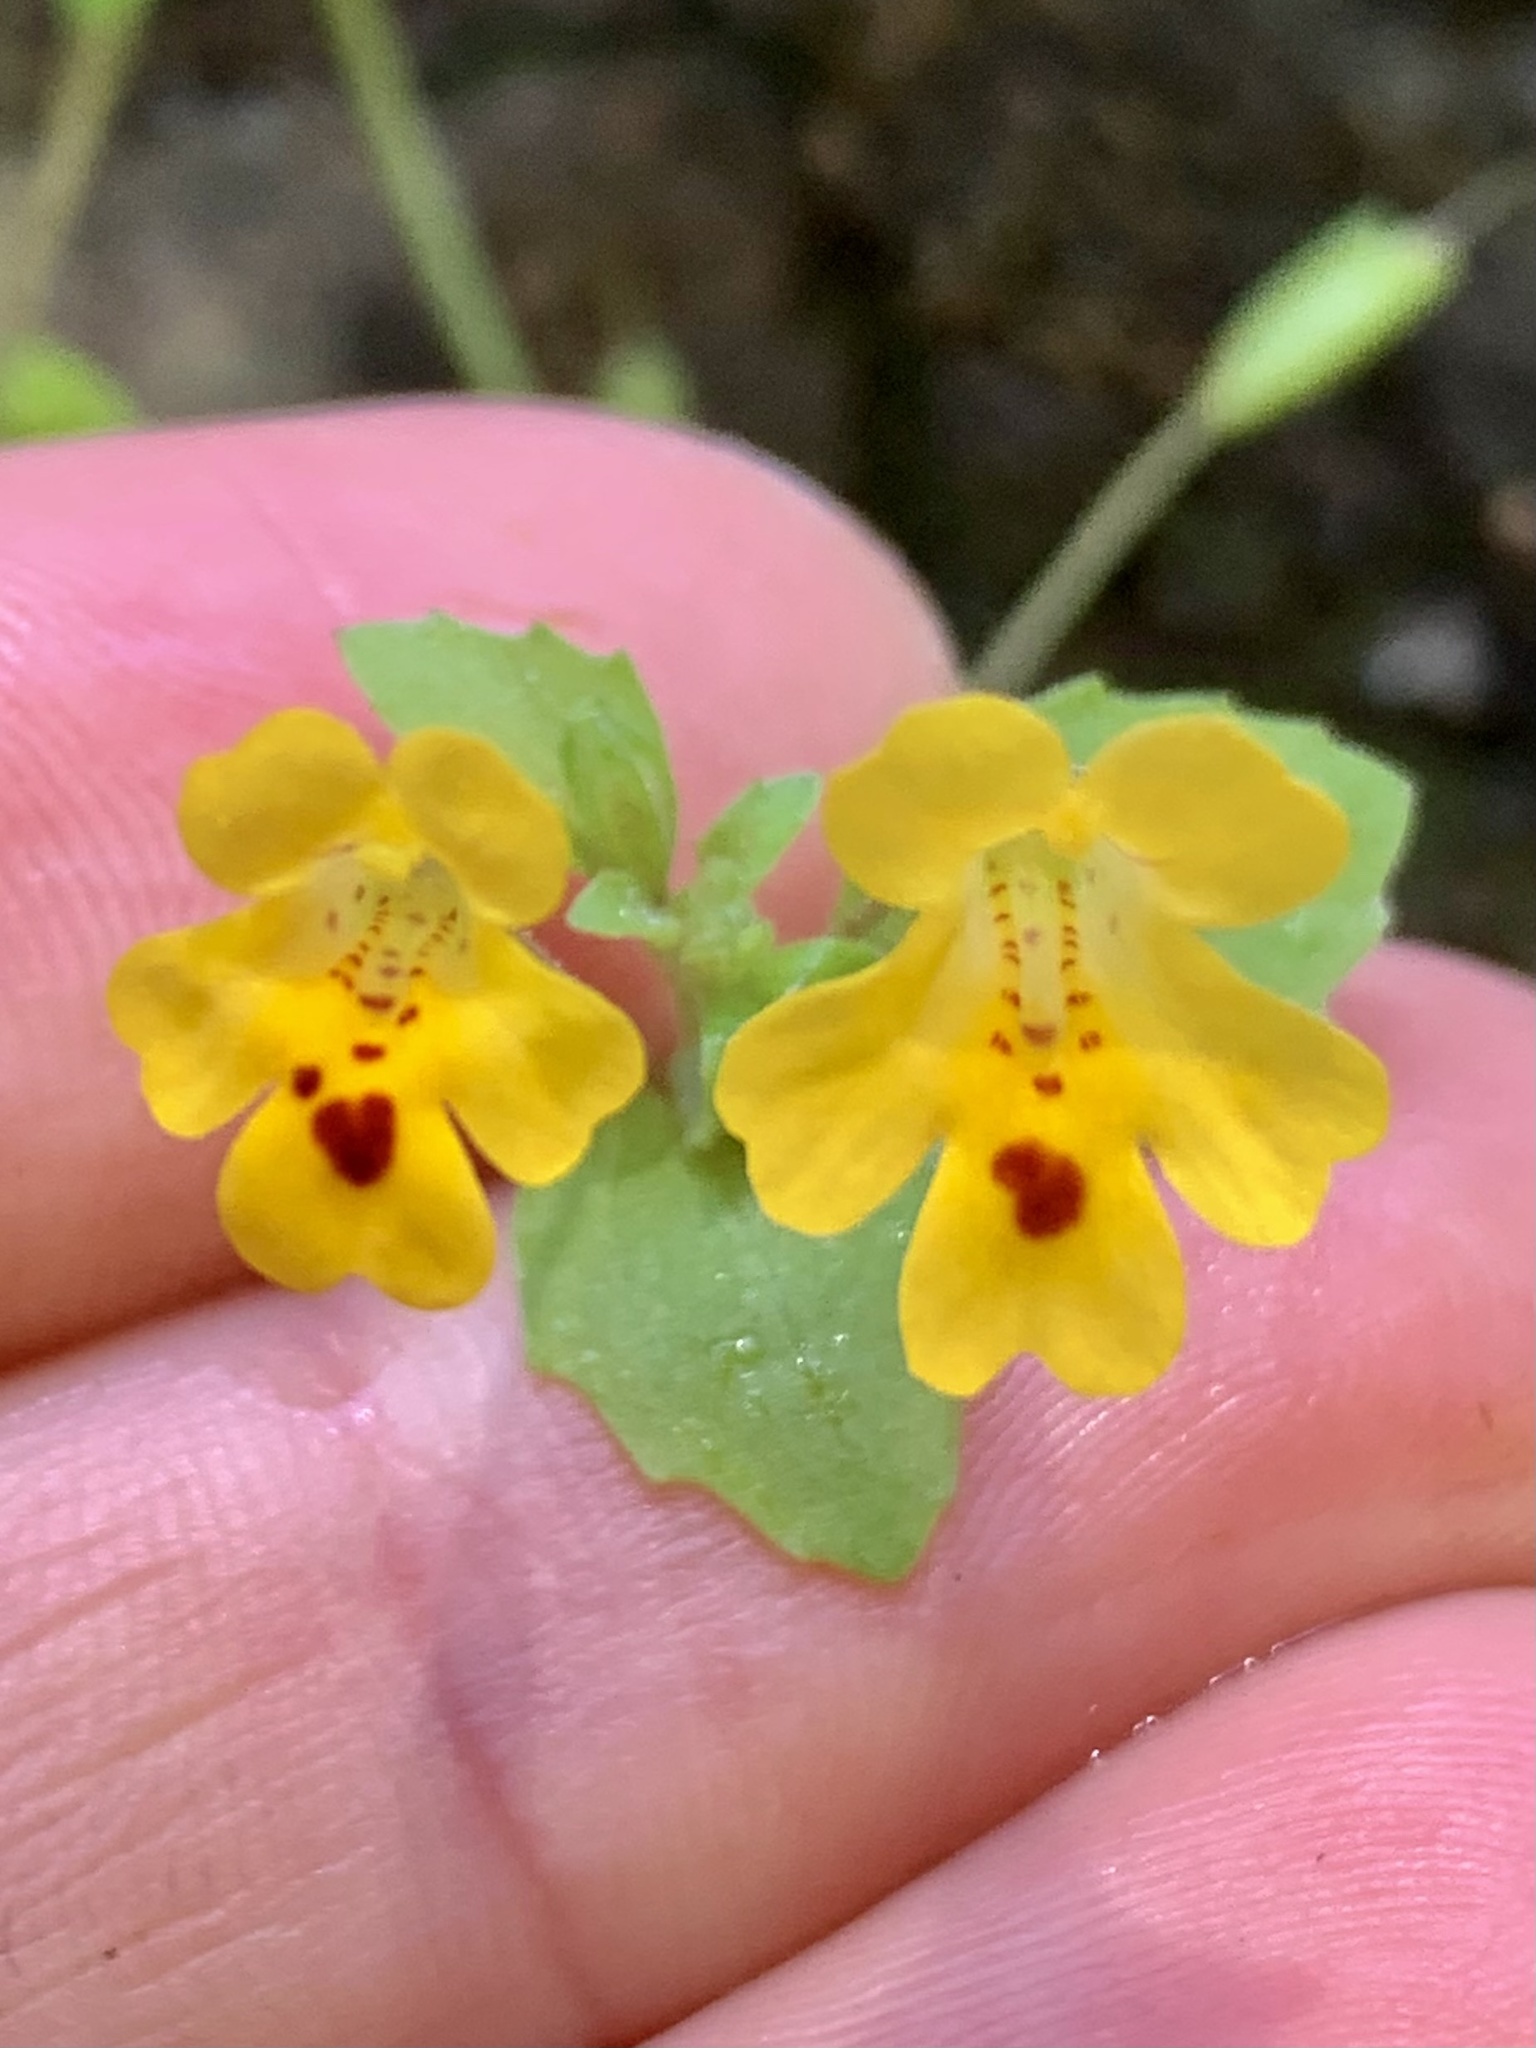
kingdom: Plantae
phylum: Tracheophyta
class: Magnoliopsida
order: Lamiales
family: Phrymaceae
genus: Erythranthe
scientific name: Erythranthe alsinoides
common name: Chickweed monkeyflower
